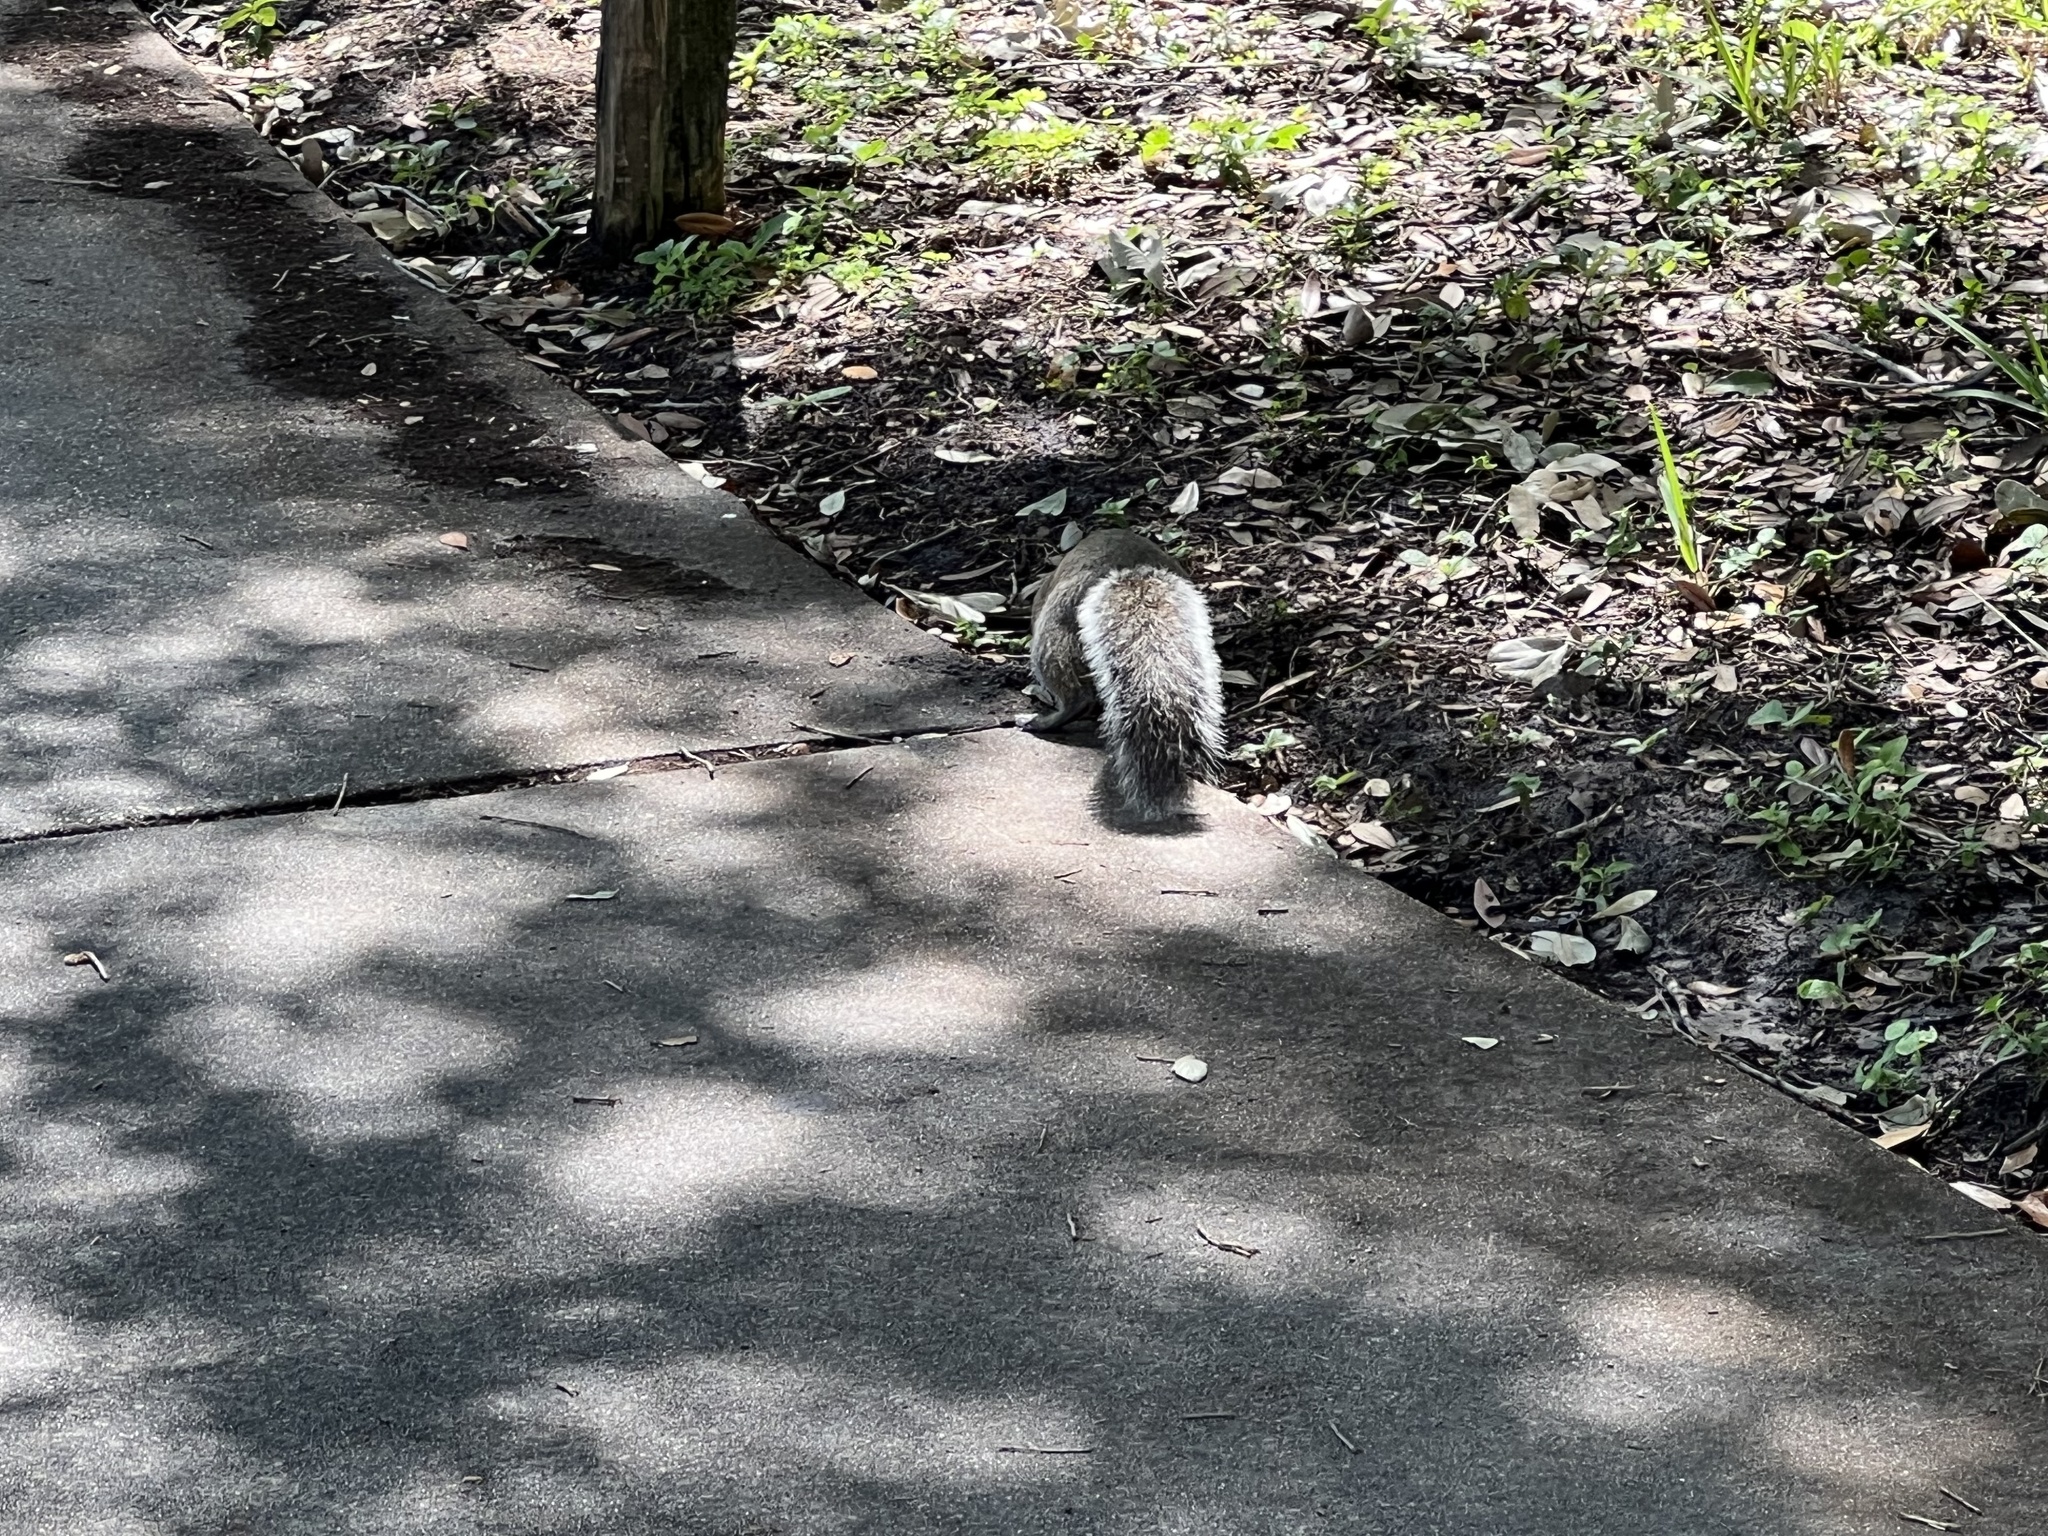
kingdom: Animalia
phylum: Chordata
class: Mammalia
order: Rodentia
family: Sciuridae
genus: Sciurus
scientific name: Sciurus carolinensis
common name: Eastern gray squirrel
